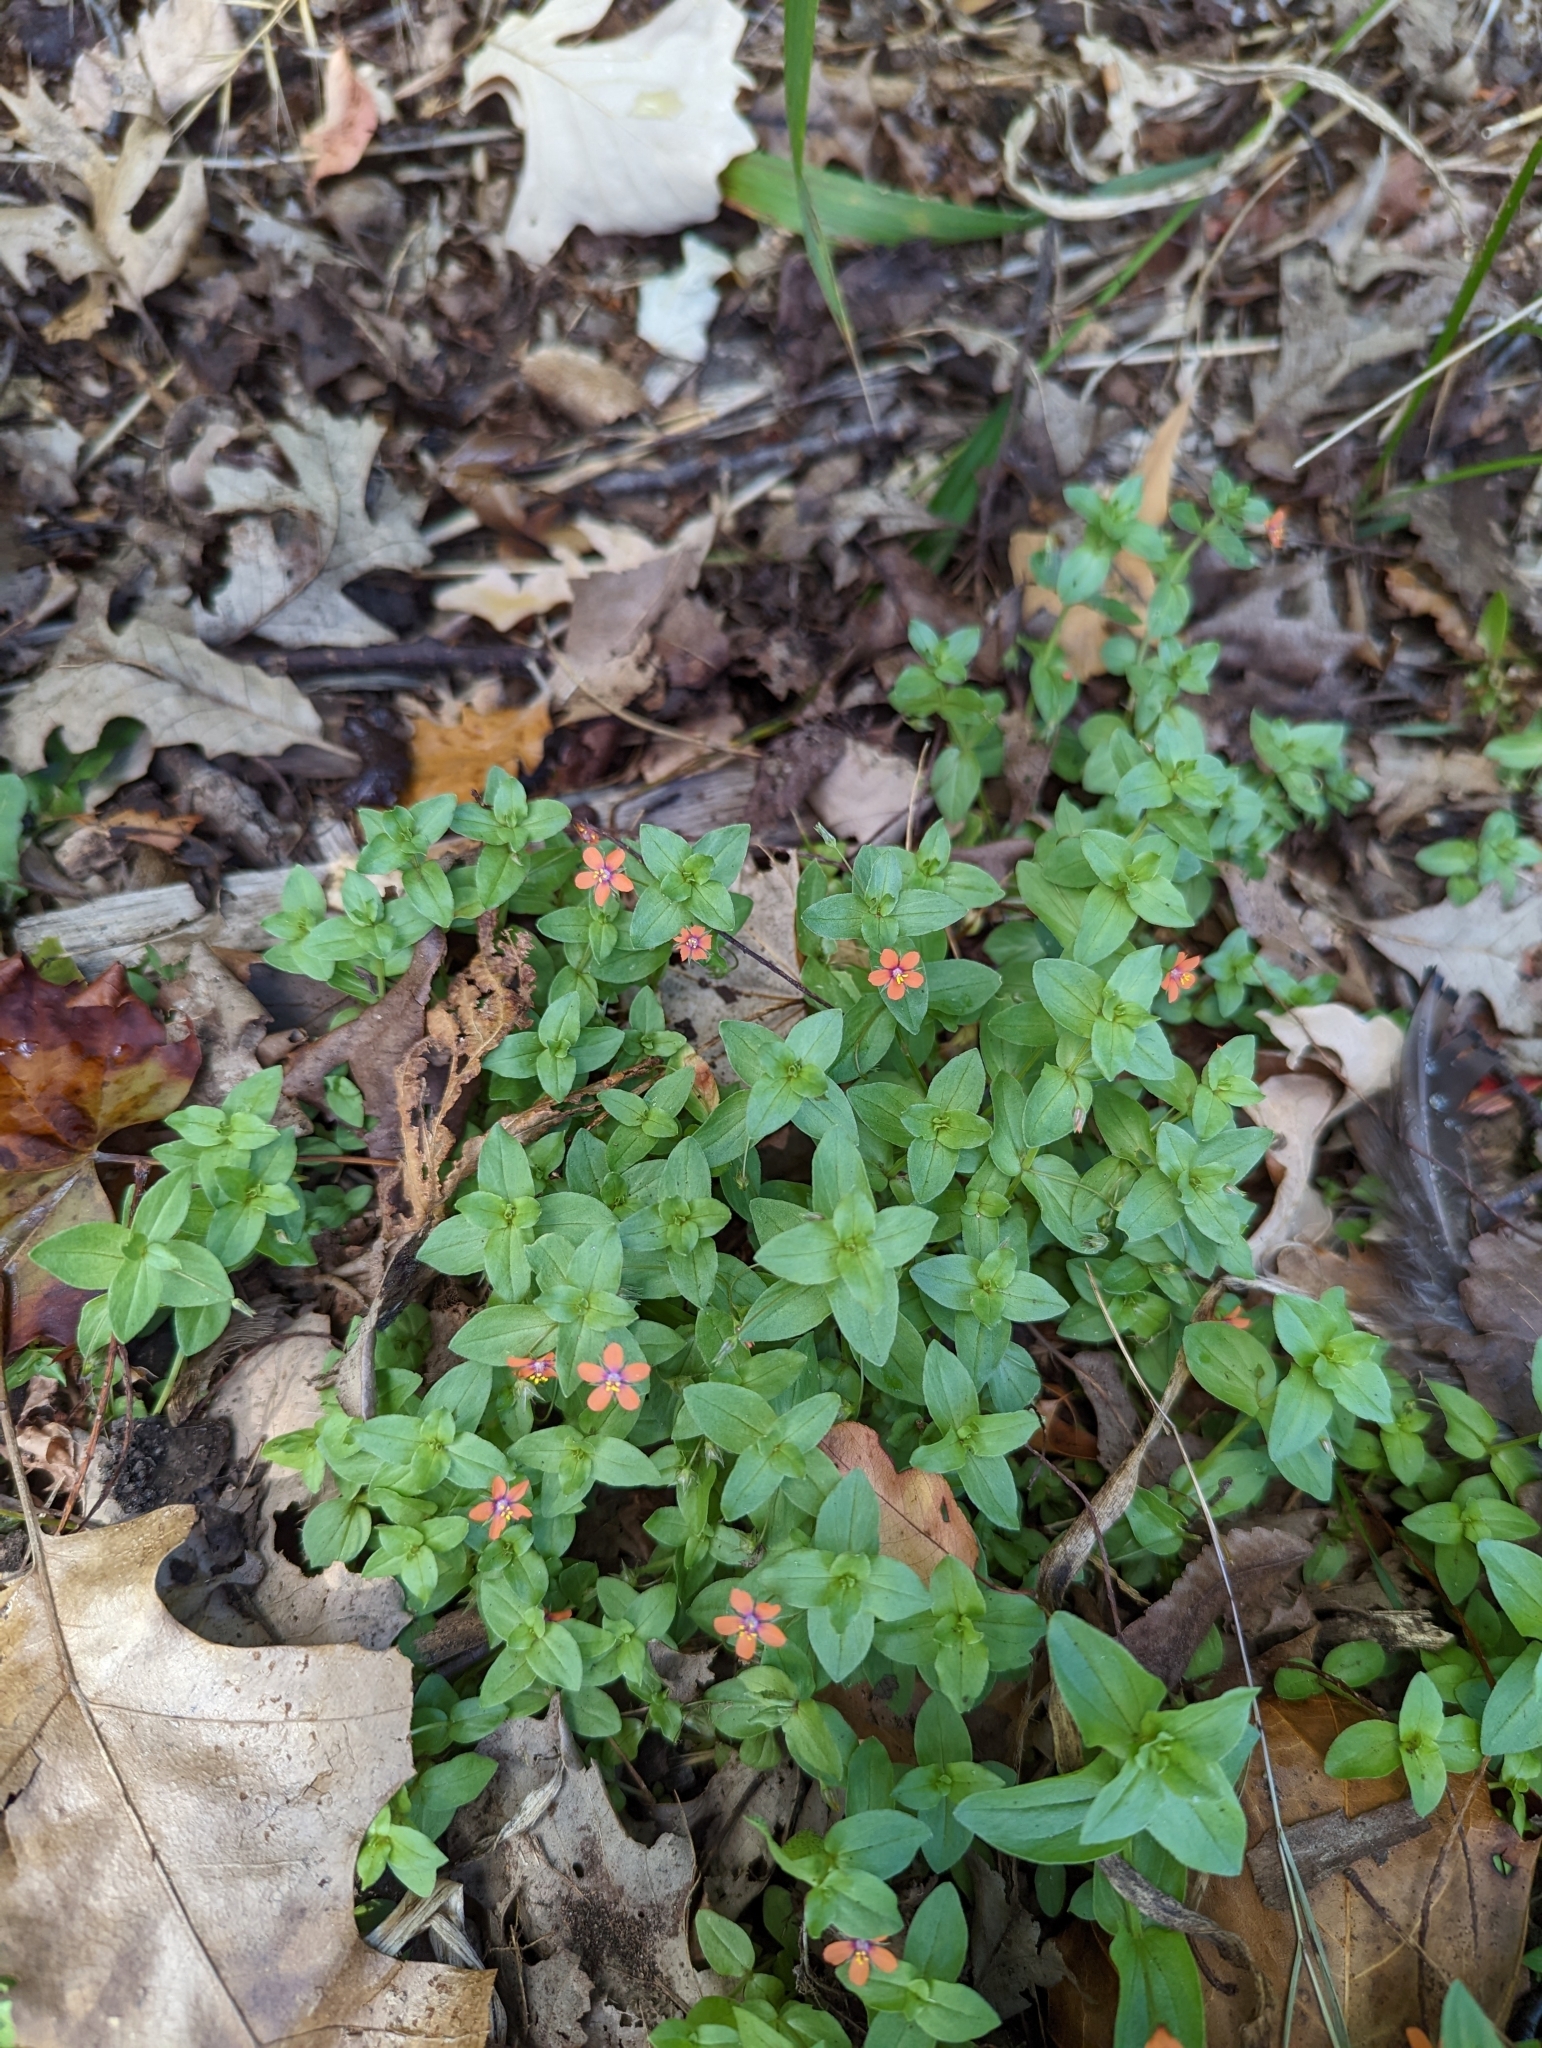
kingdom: Plantae
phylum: Tracheophyta
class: Magnoliopsida
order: Ericales
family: Primulaceae
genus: Lysimachia
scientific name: Lysimachia arvensis
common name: Scarlet pimpernel
